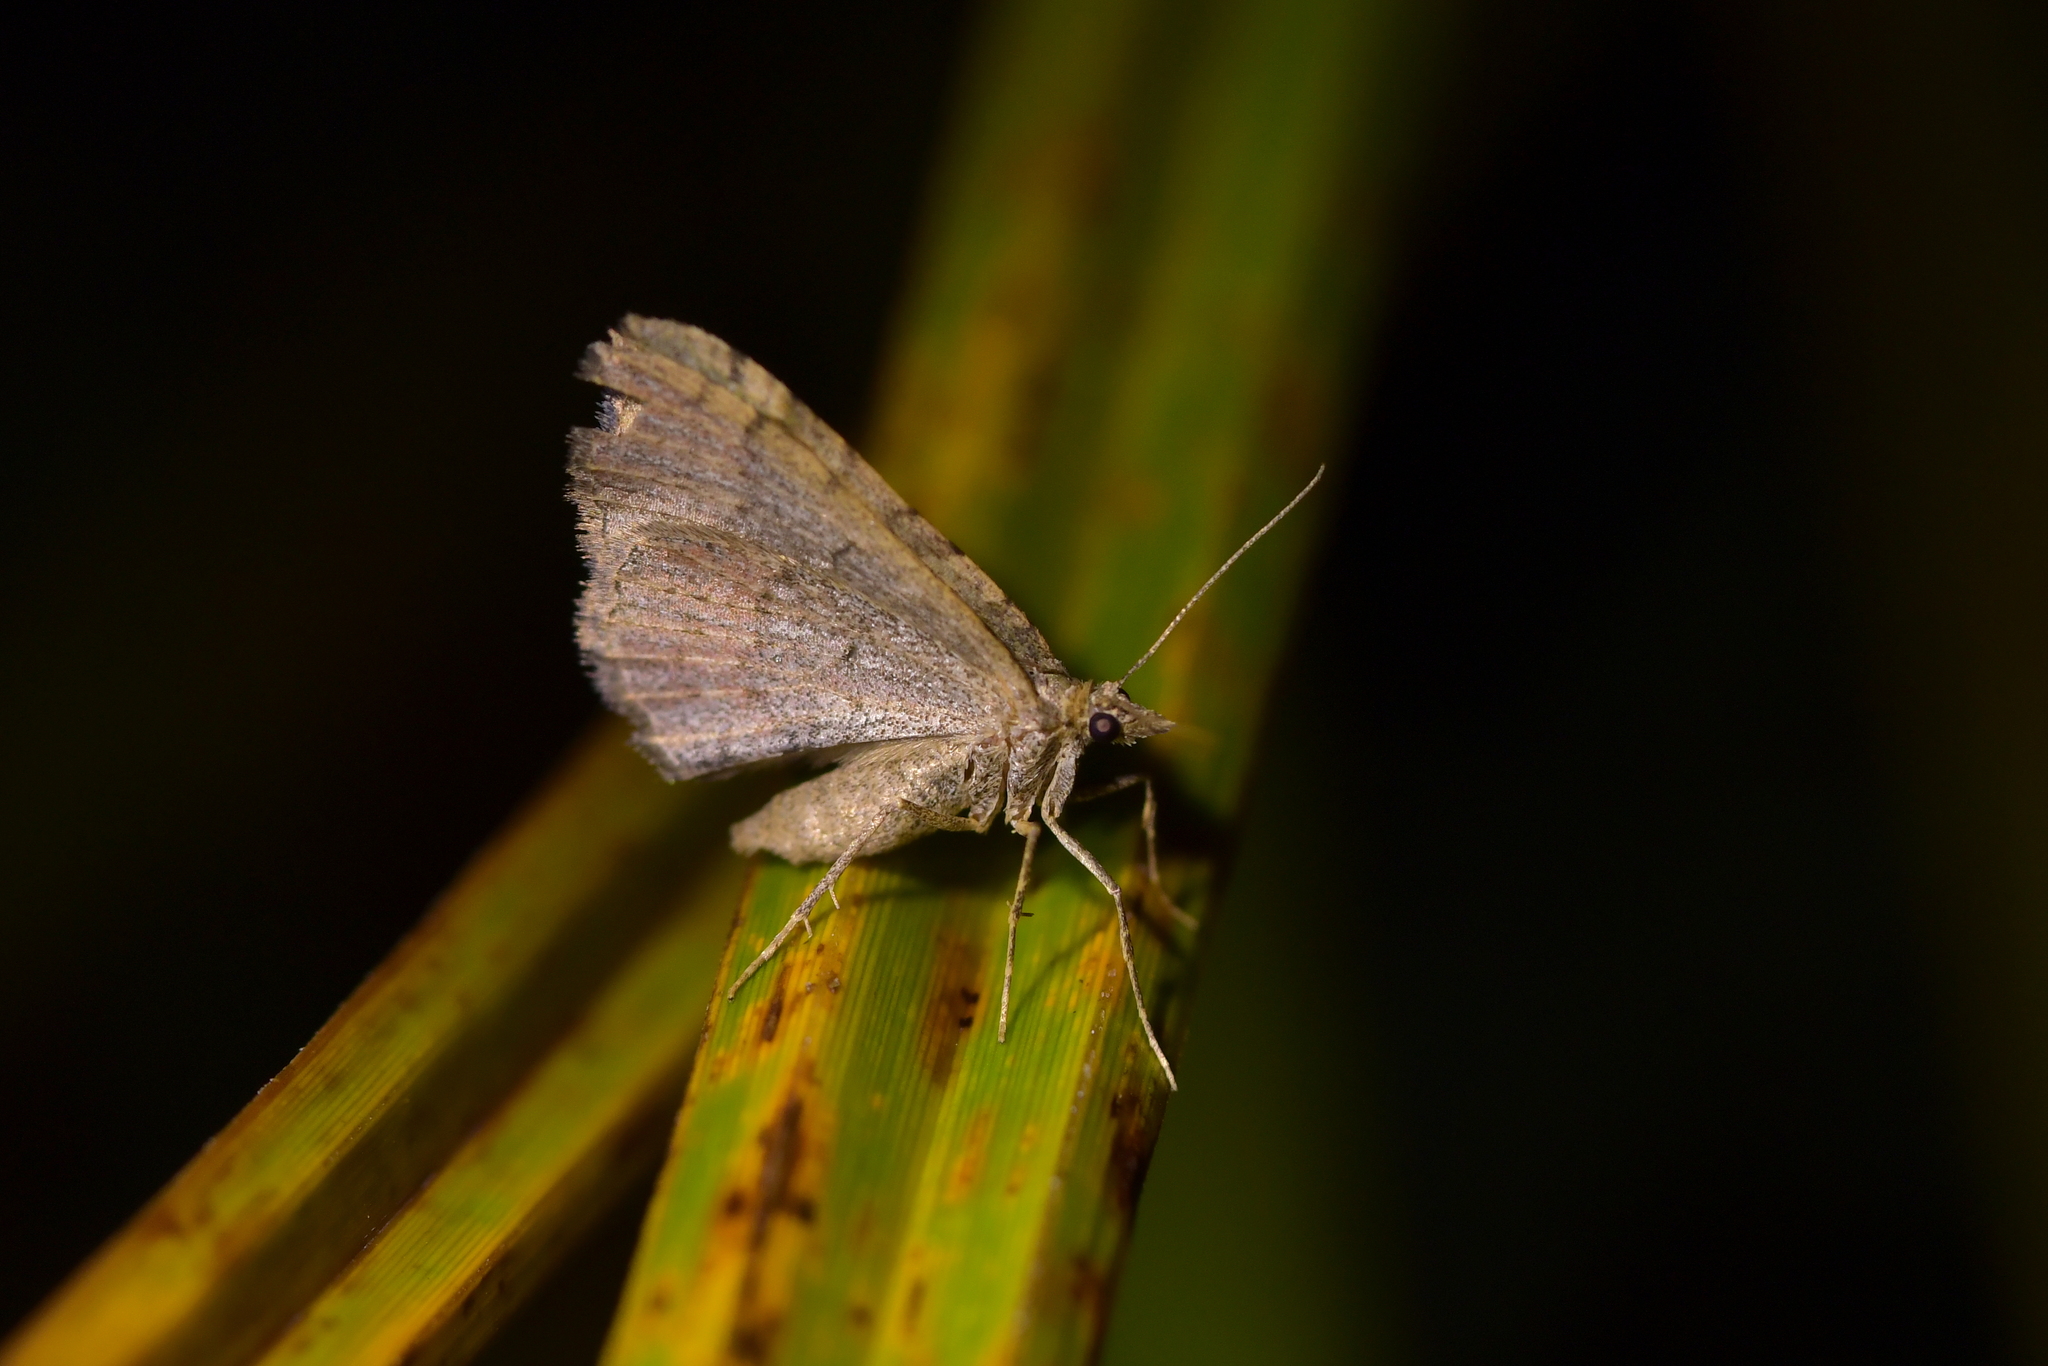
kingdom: Animalia
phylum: Arthropoda
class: Insecta
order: Lepidoptera
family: Geometridae
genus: Epyaxa
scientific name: Epyaxa rosearia
